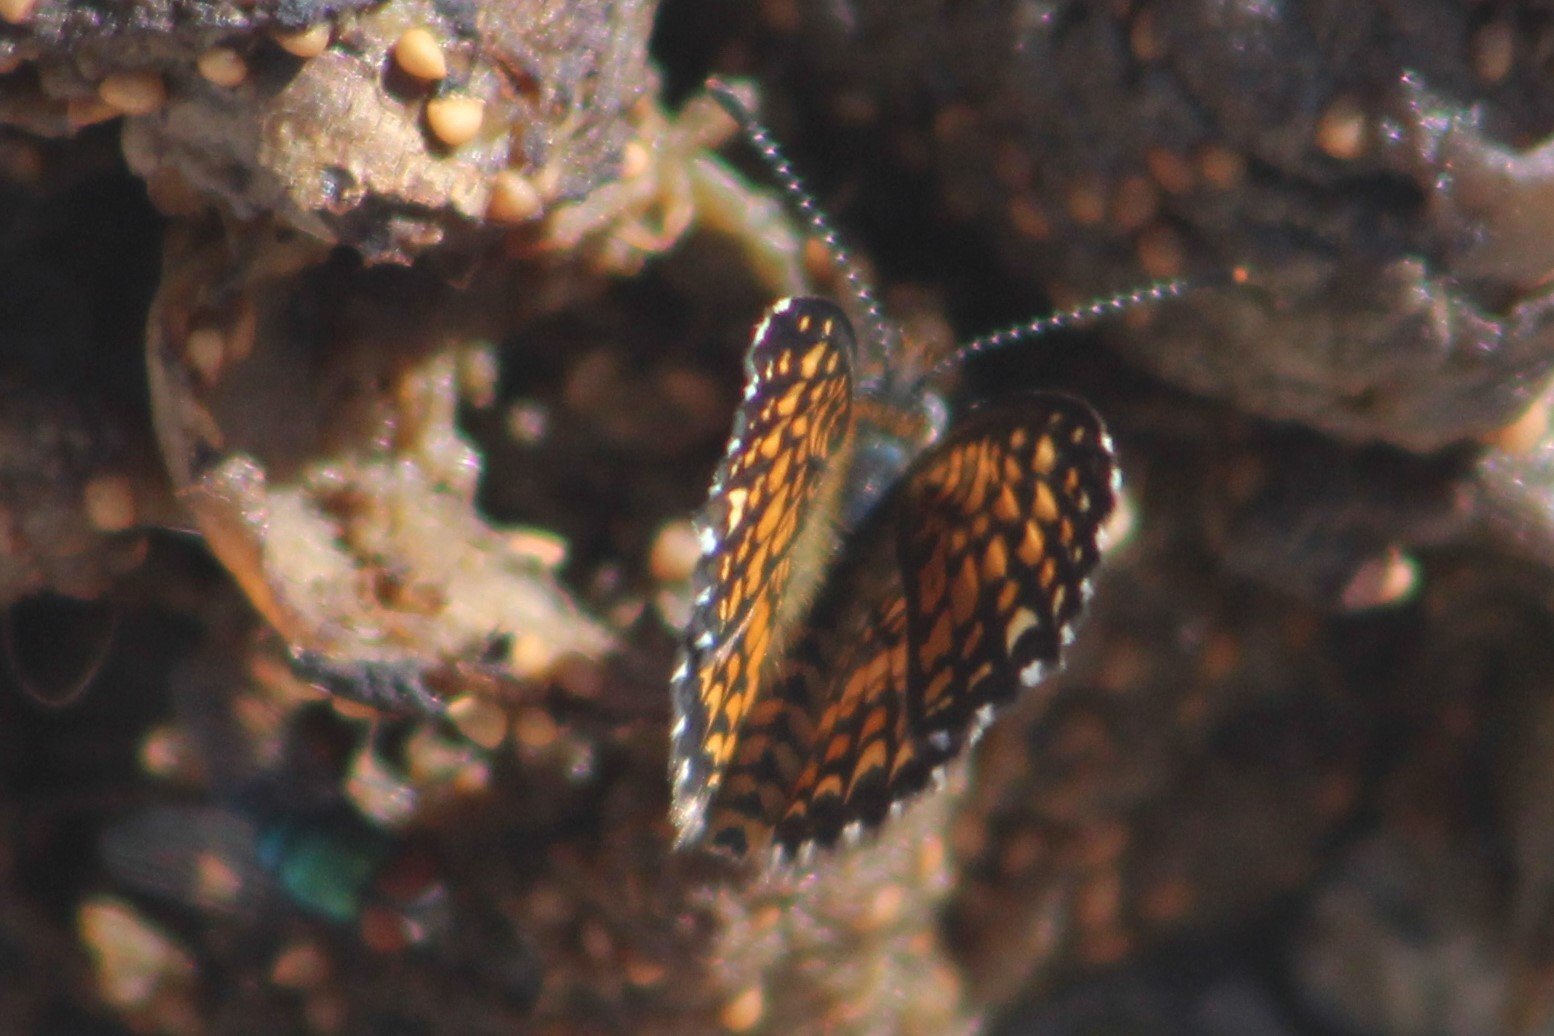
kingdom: Animalia
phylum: Arthropoda
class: Insecta
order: Lepidoptera
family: Nymphalidae
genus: Texola
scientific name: Texola elada
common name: Elada checkerspot
